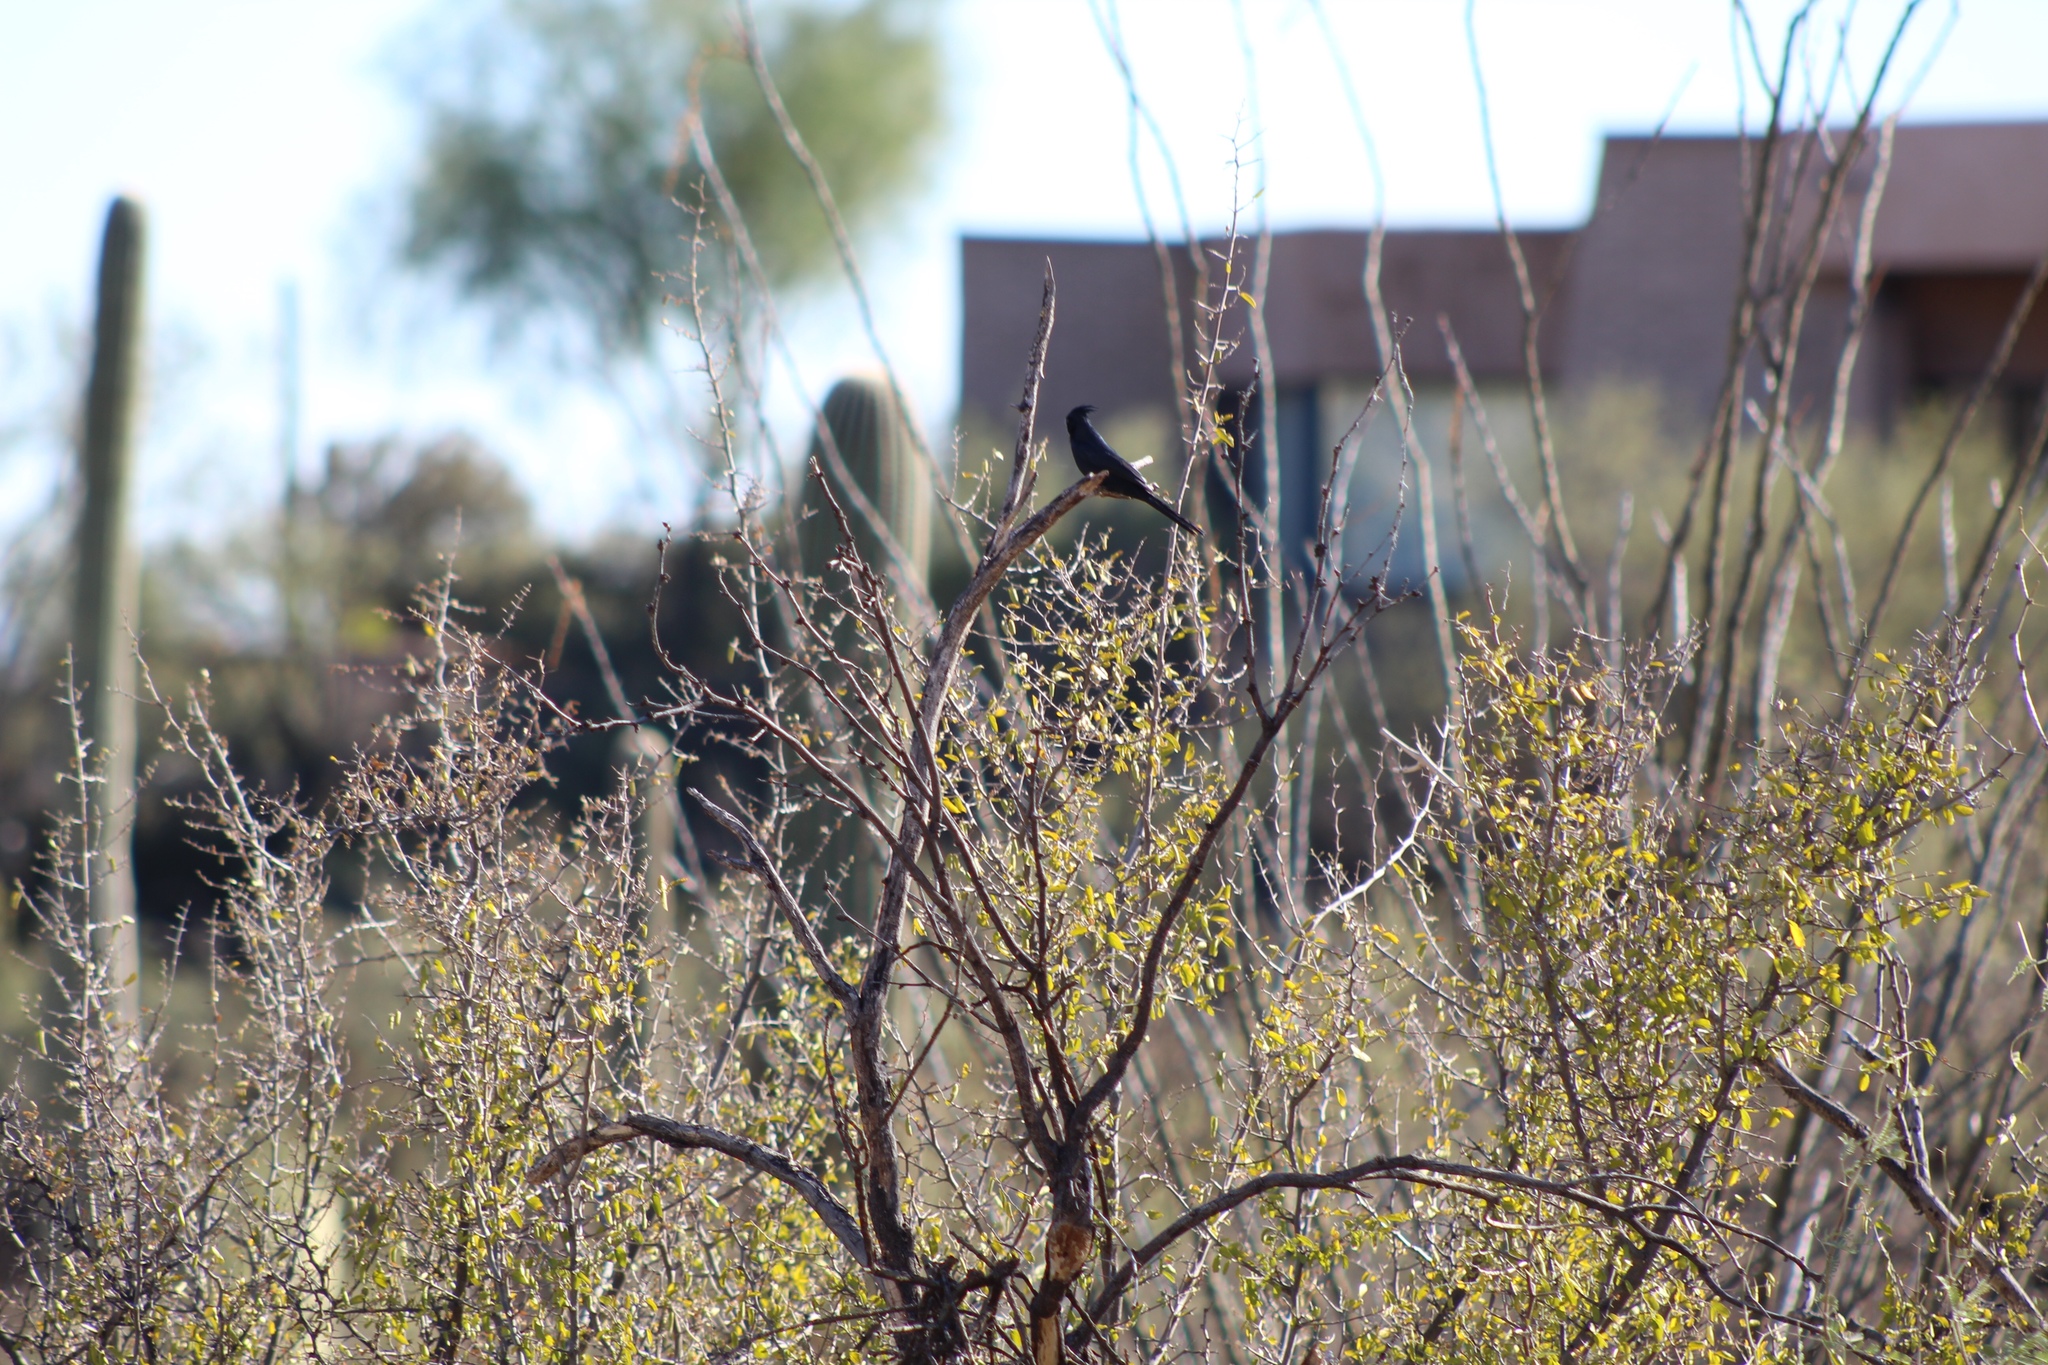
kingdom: Animalia
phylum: Chordata
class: Aves
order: Passeriformes
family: Ptilogonatidae
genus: Phainopepla
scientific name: Phainopepla nitens
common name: Phainopepla
